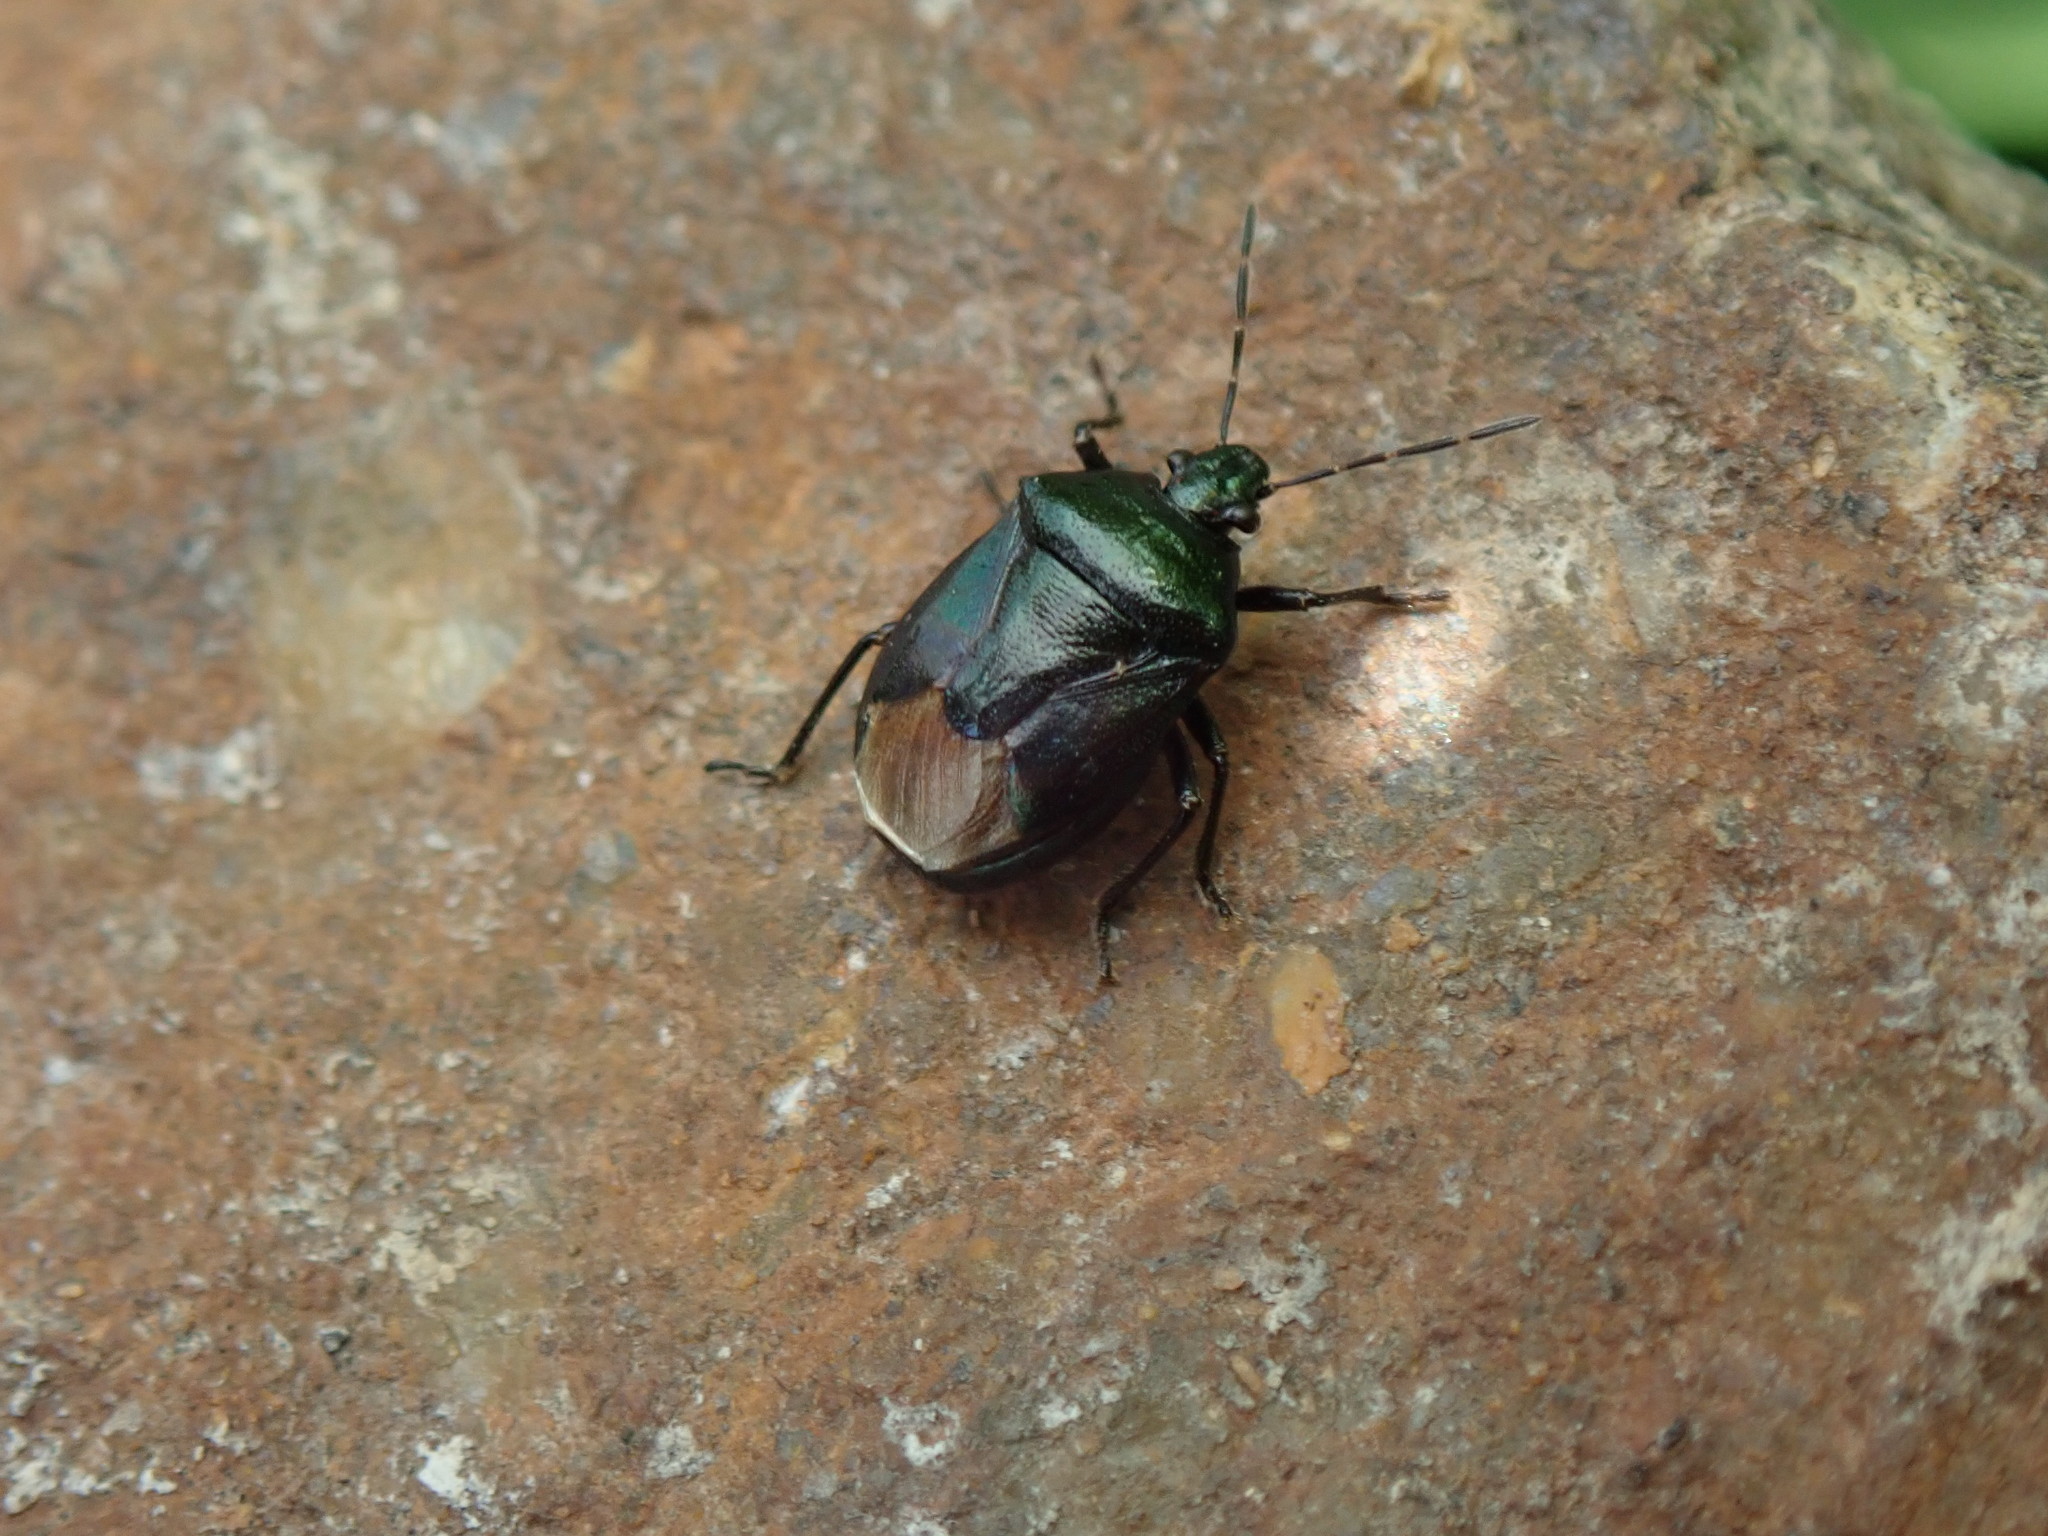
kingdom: Animalia
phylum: Arthropoda
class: Insecta
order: Hemiptera
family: Pentatomidae
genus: Zicrona
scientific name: Zicrona caerulea
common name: Blue shieldbug
